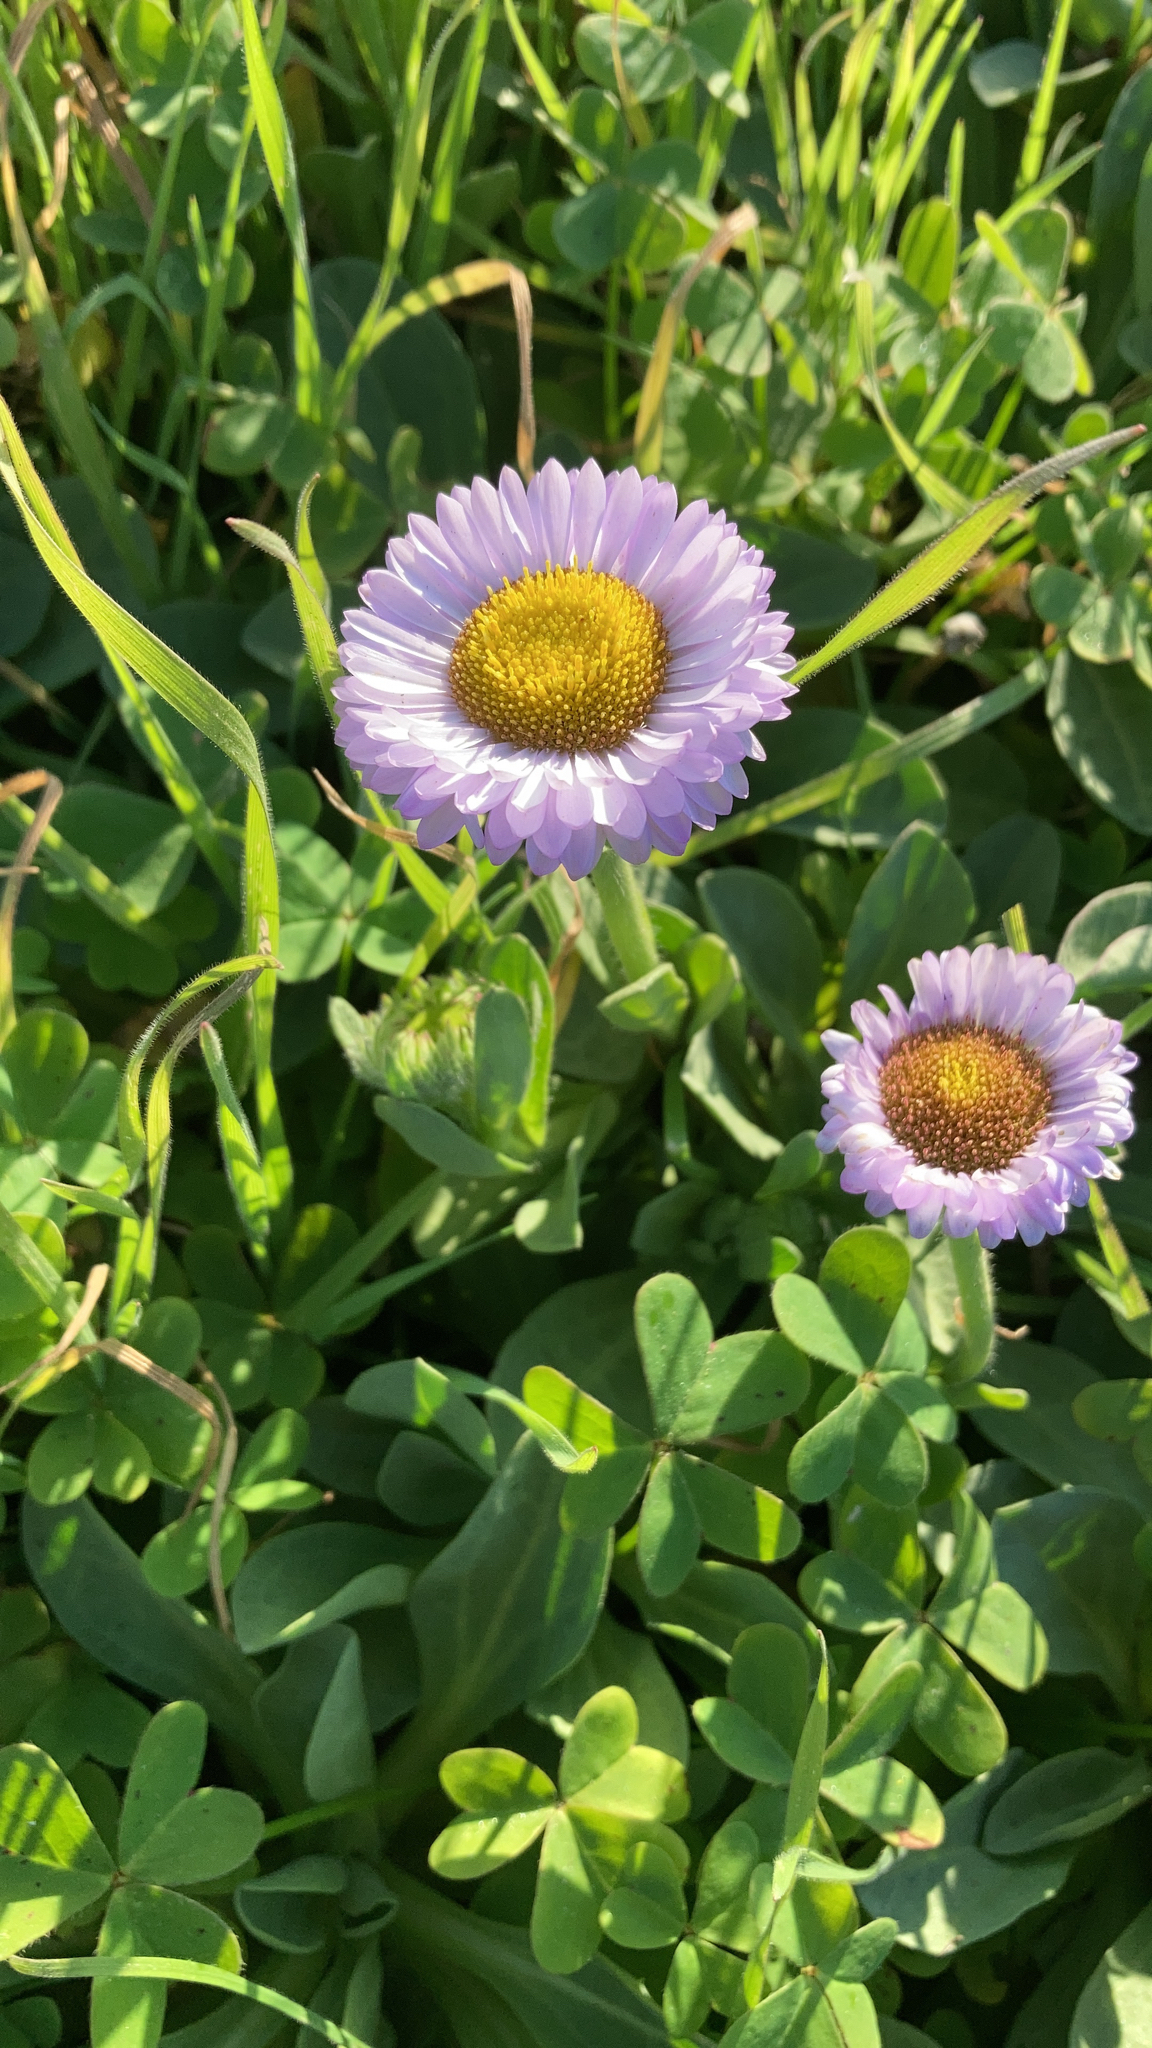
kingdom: Plantae
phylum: Tracheophyta
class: Magnoliopsida
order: Asterales
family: Asteraceae
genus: Erigeron
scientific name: Erigeron glaucus
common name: Seaside daisy
